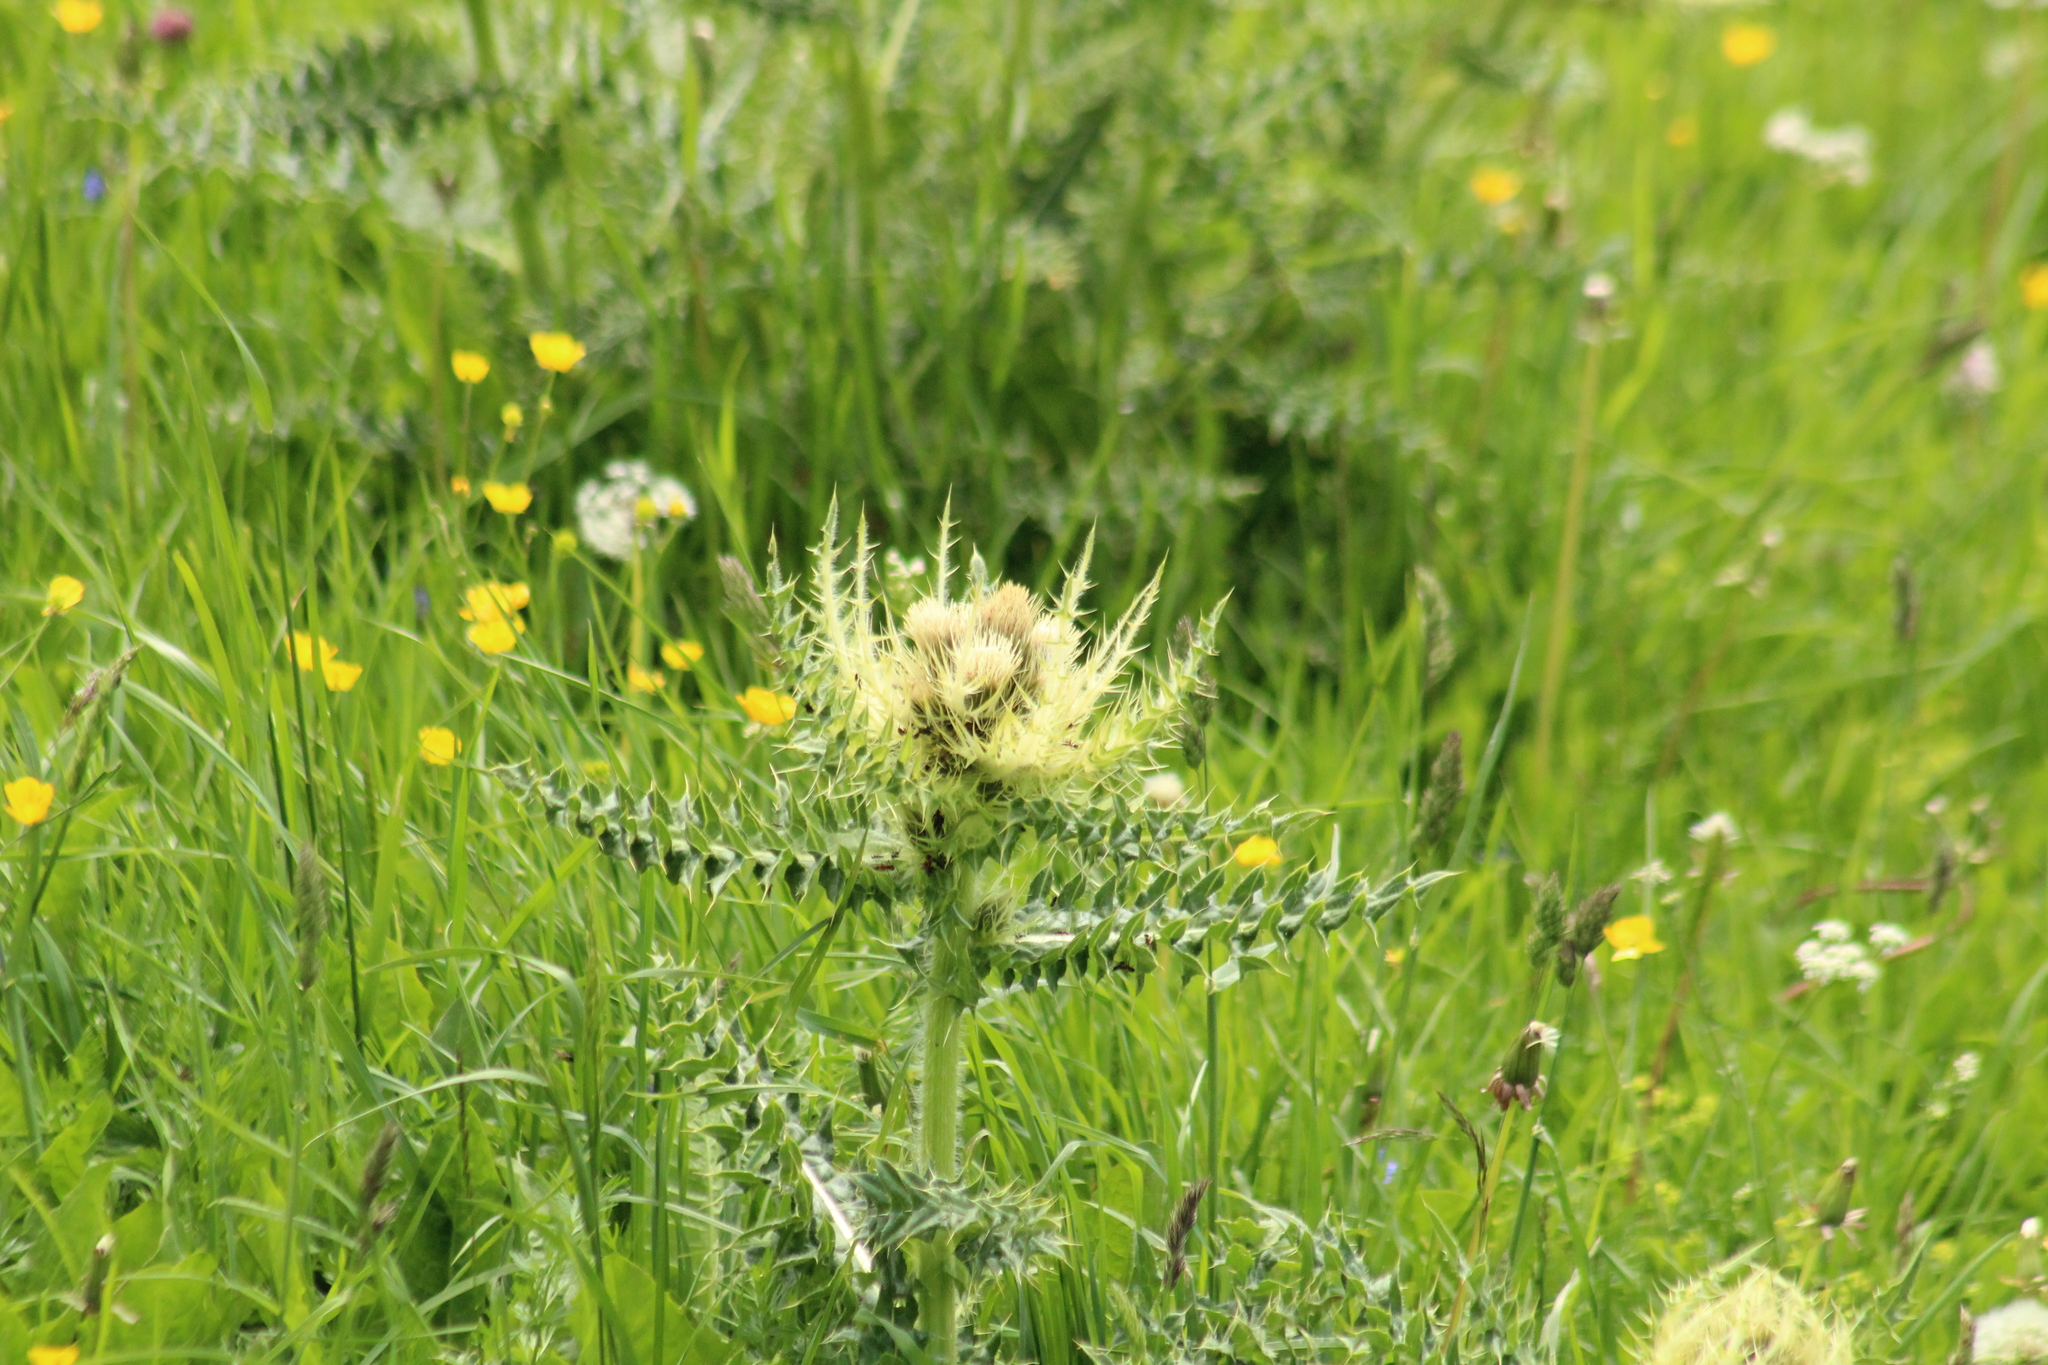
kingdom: Plantae
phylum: Tracheophyta
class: Magnoliopsida
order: Asterales
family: Asteraceae
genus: Cirsium
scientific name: Cirsium spinosissimum
